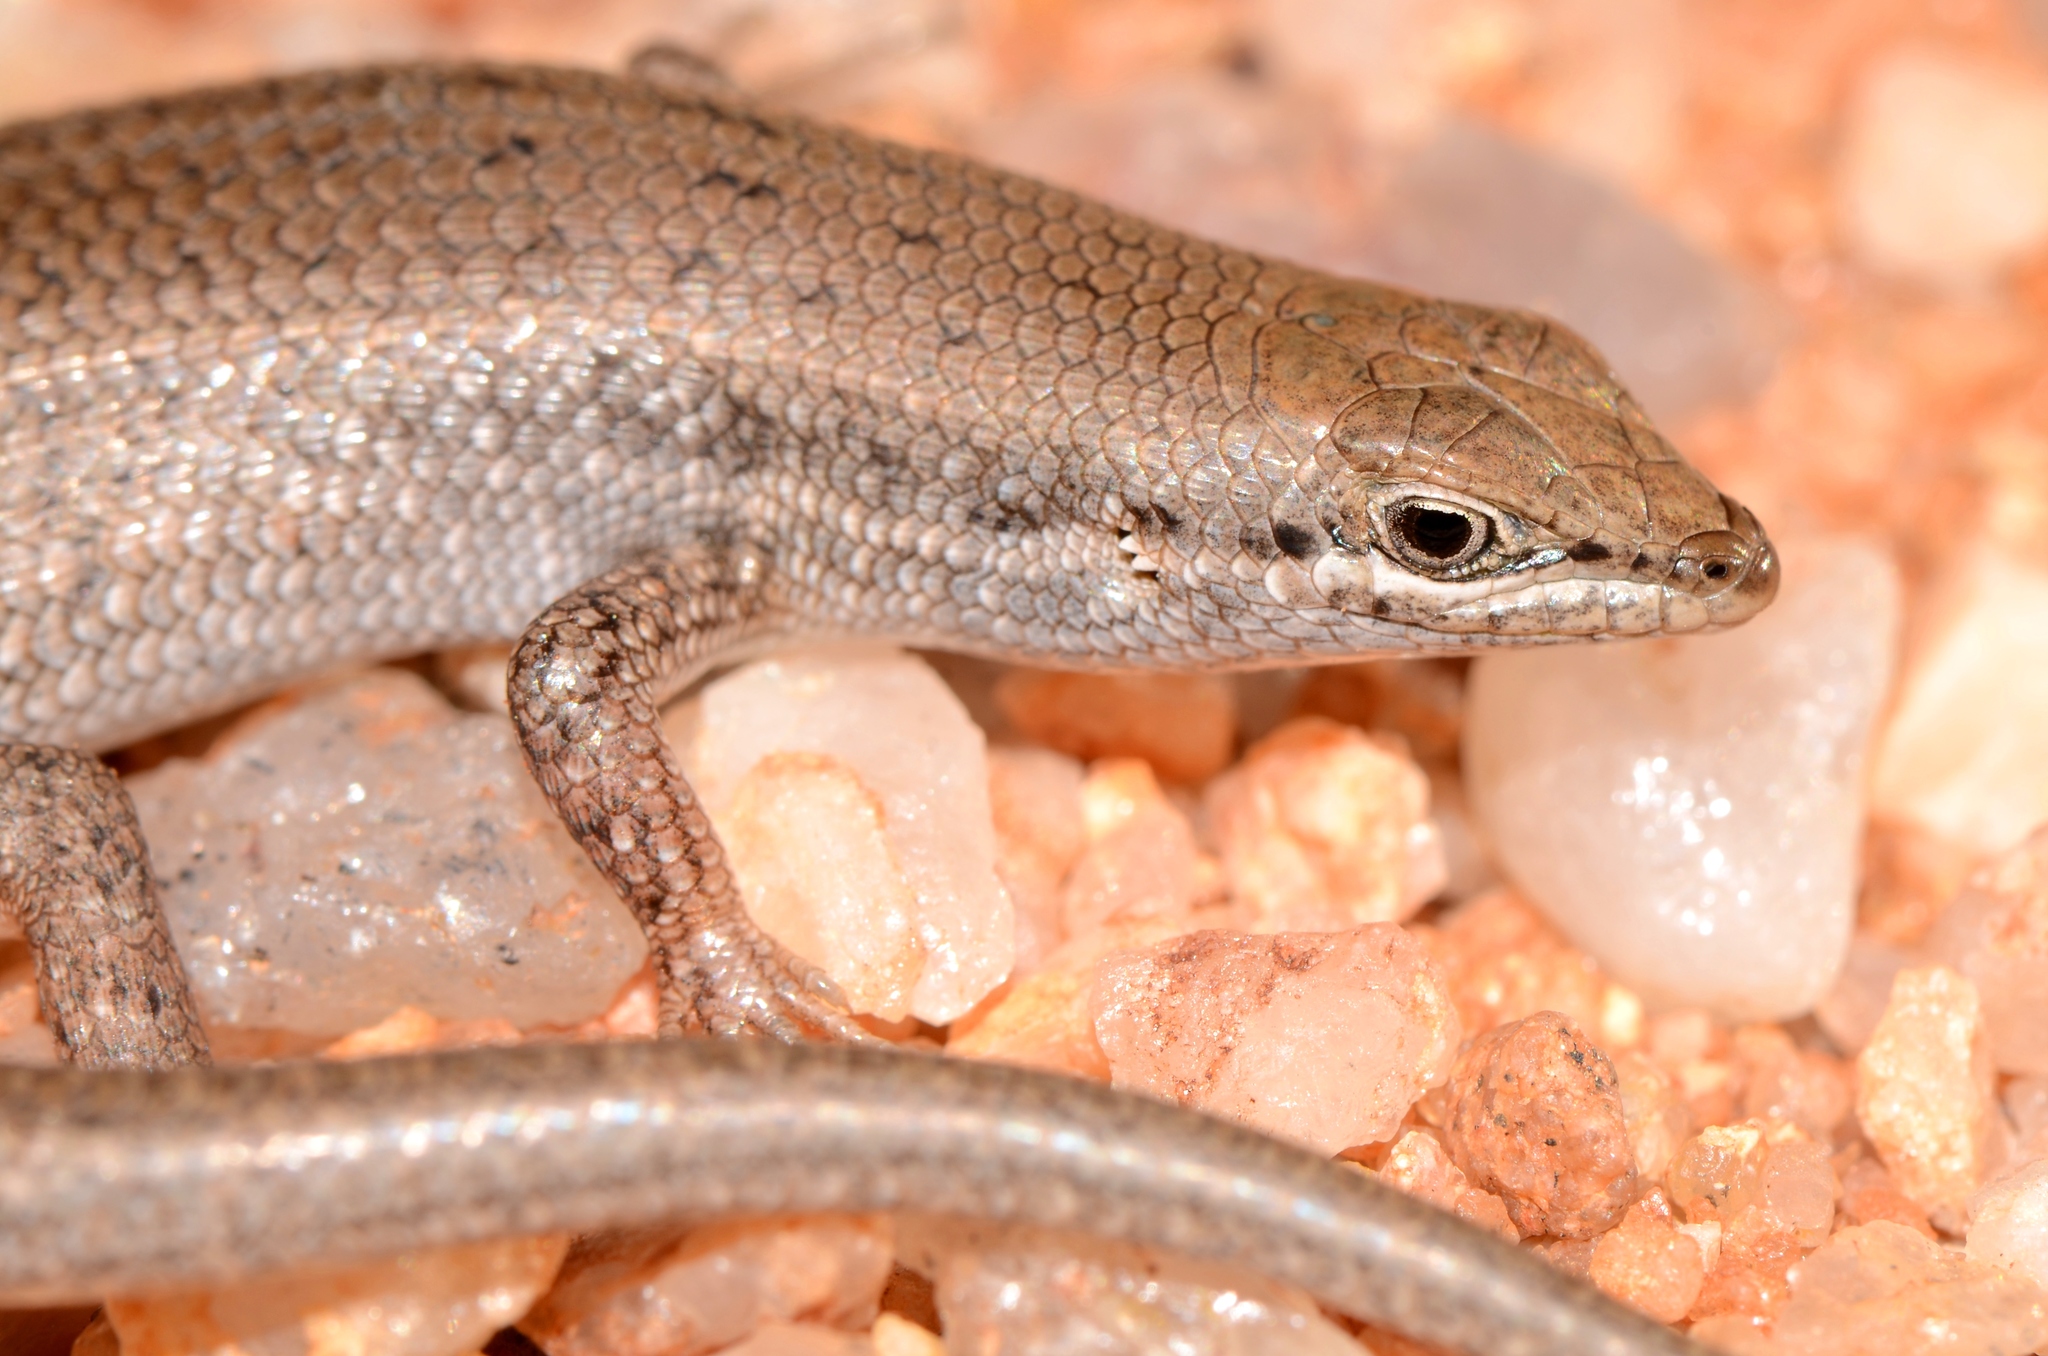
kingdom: Animalia
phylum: Chordata
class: Squamata
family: Scincidae
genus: Trachylepis
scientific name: Trachylepis variegata
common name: Variegated skink
